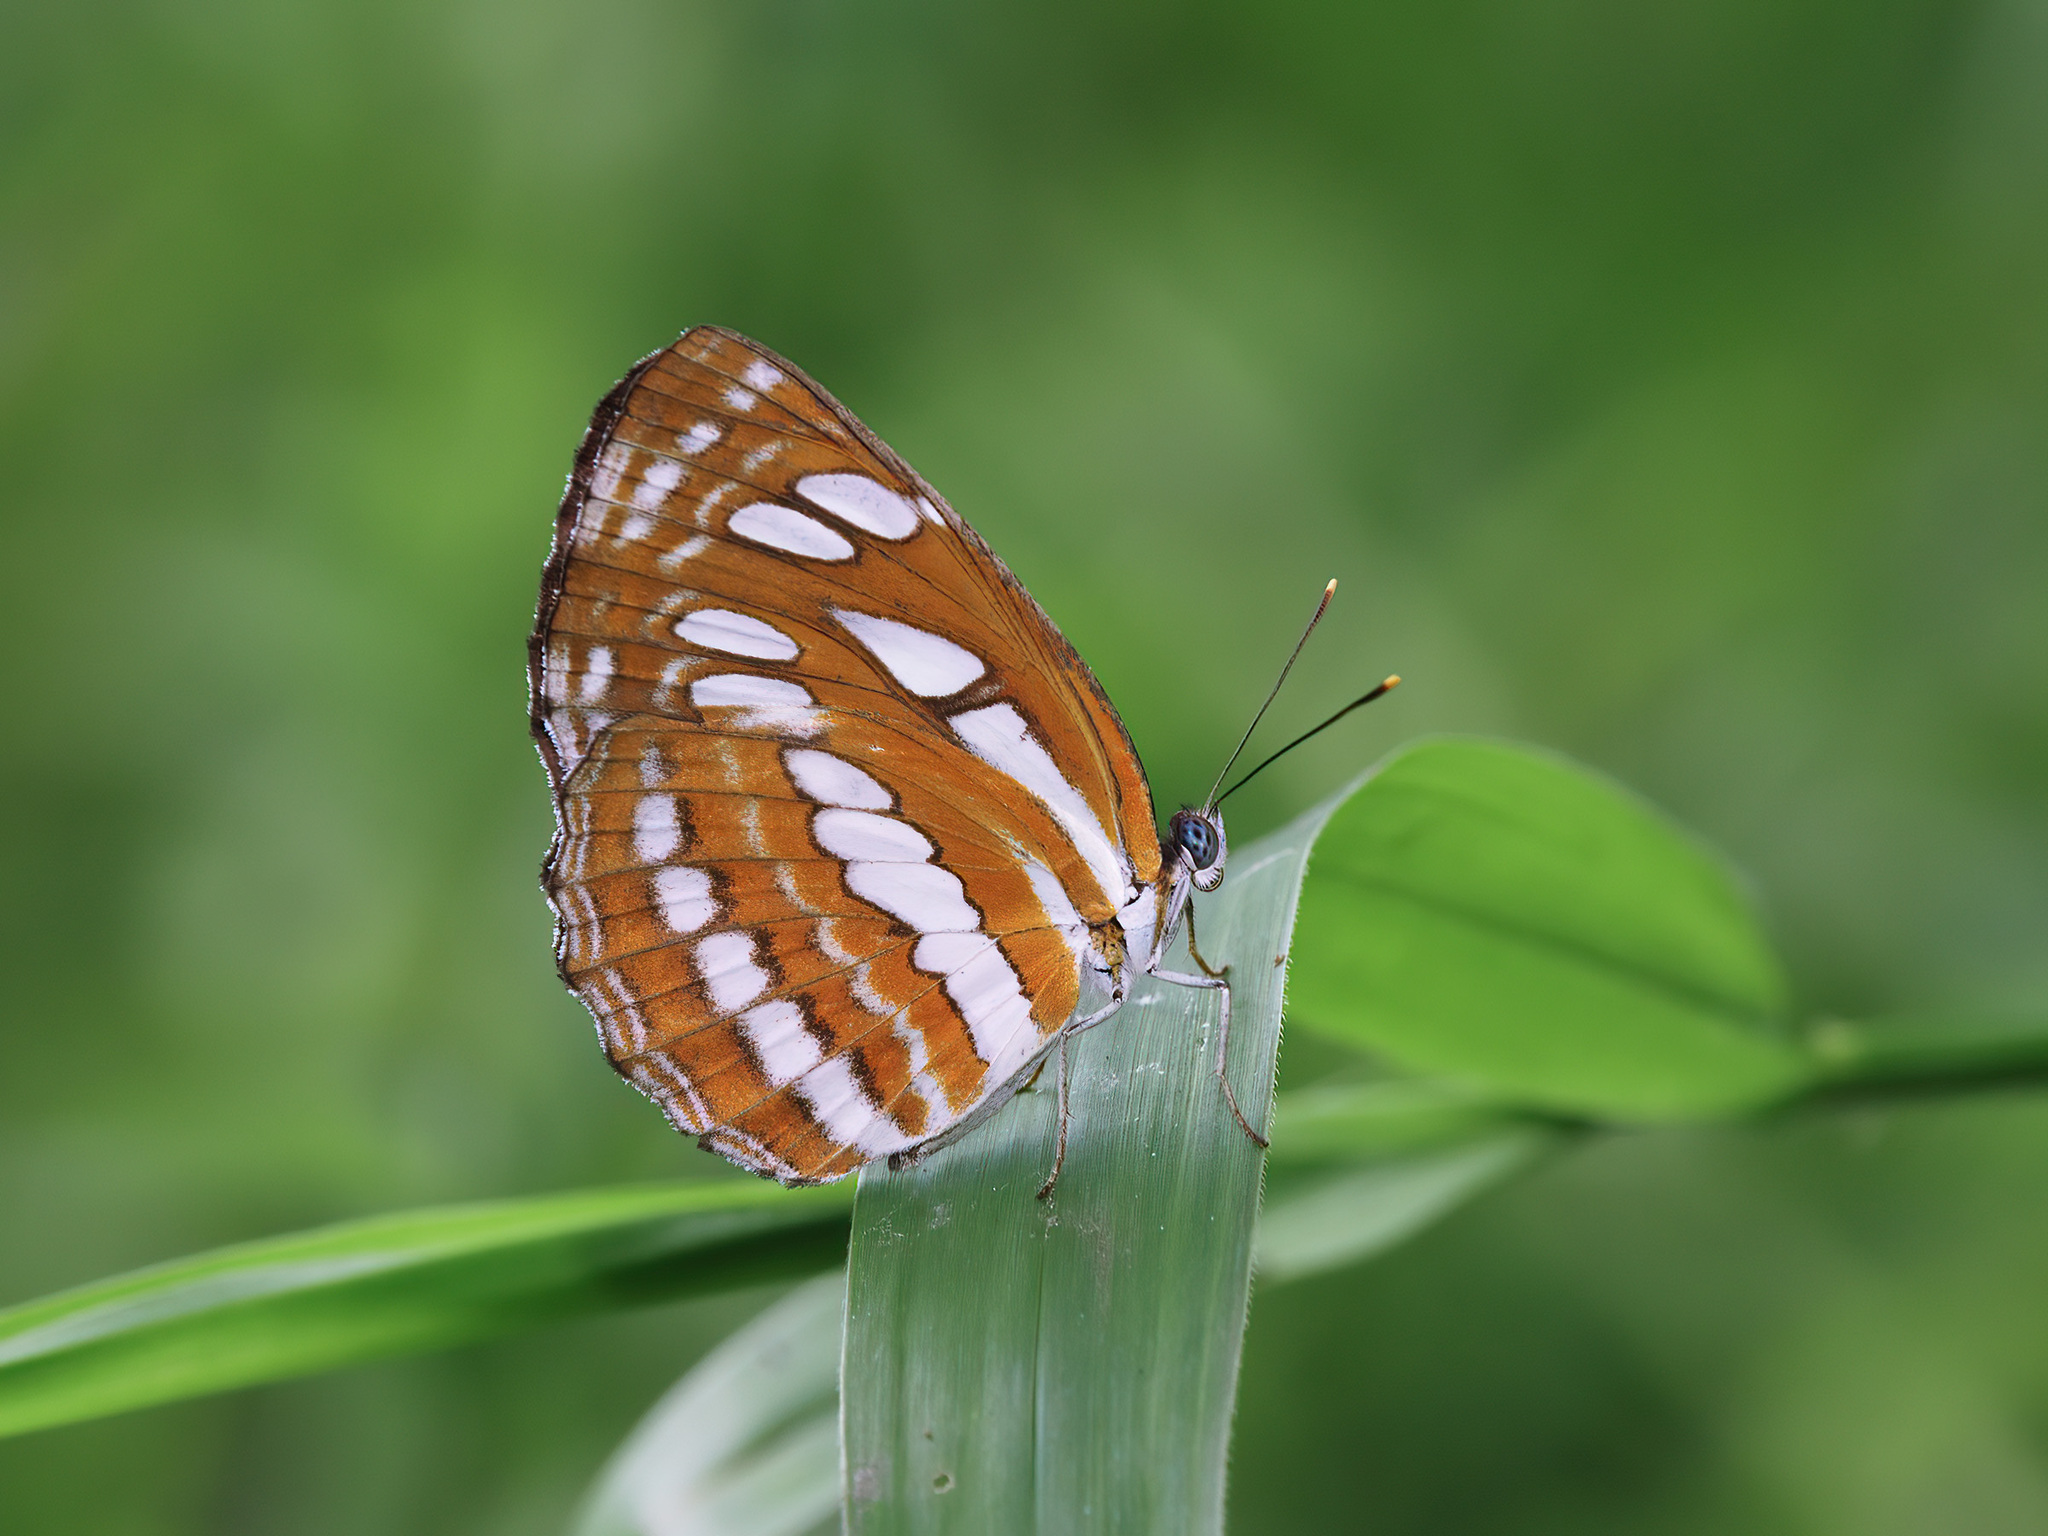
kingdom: Animalia
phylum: Arthropoda
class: Insecta
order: Lepidoptera
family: Nymphalidae
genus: Neptis
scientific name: Neptis hylas
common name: Common sailer
